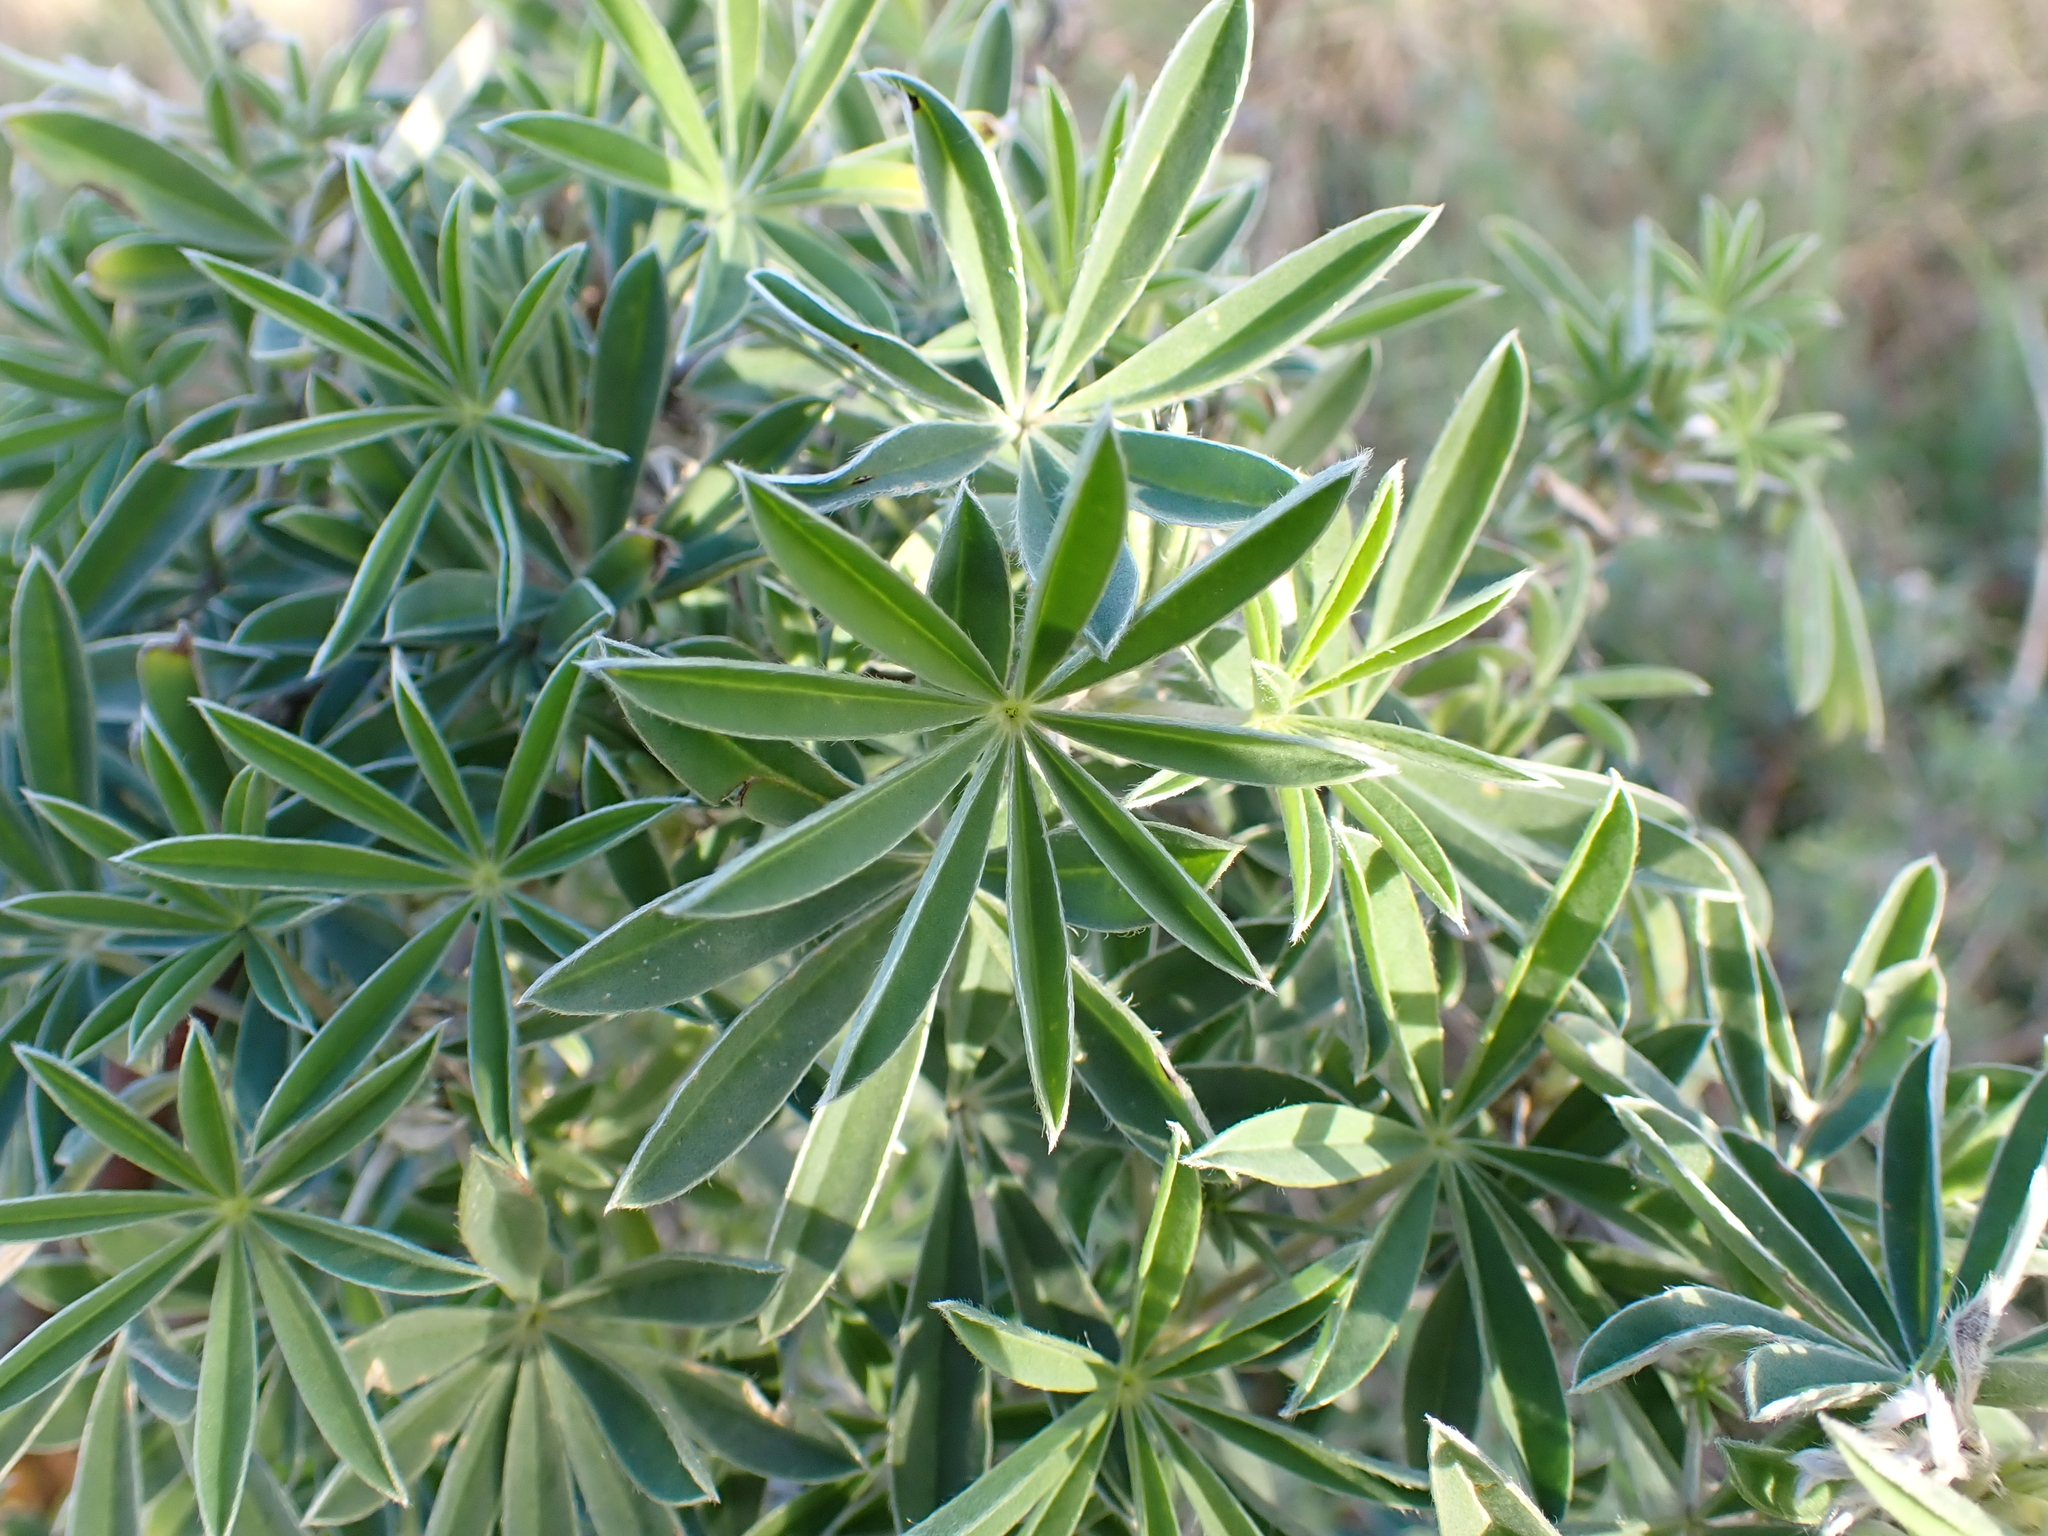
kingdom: Plantae
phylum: Tracheophyta
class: Magnoliopsida
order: Fabales
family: Fabaceae
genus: Lupinus
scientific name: Lupinus arboreus
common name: Yellow bush lupine
